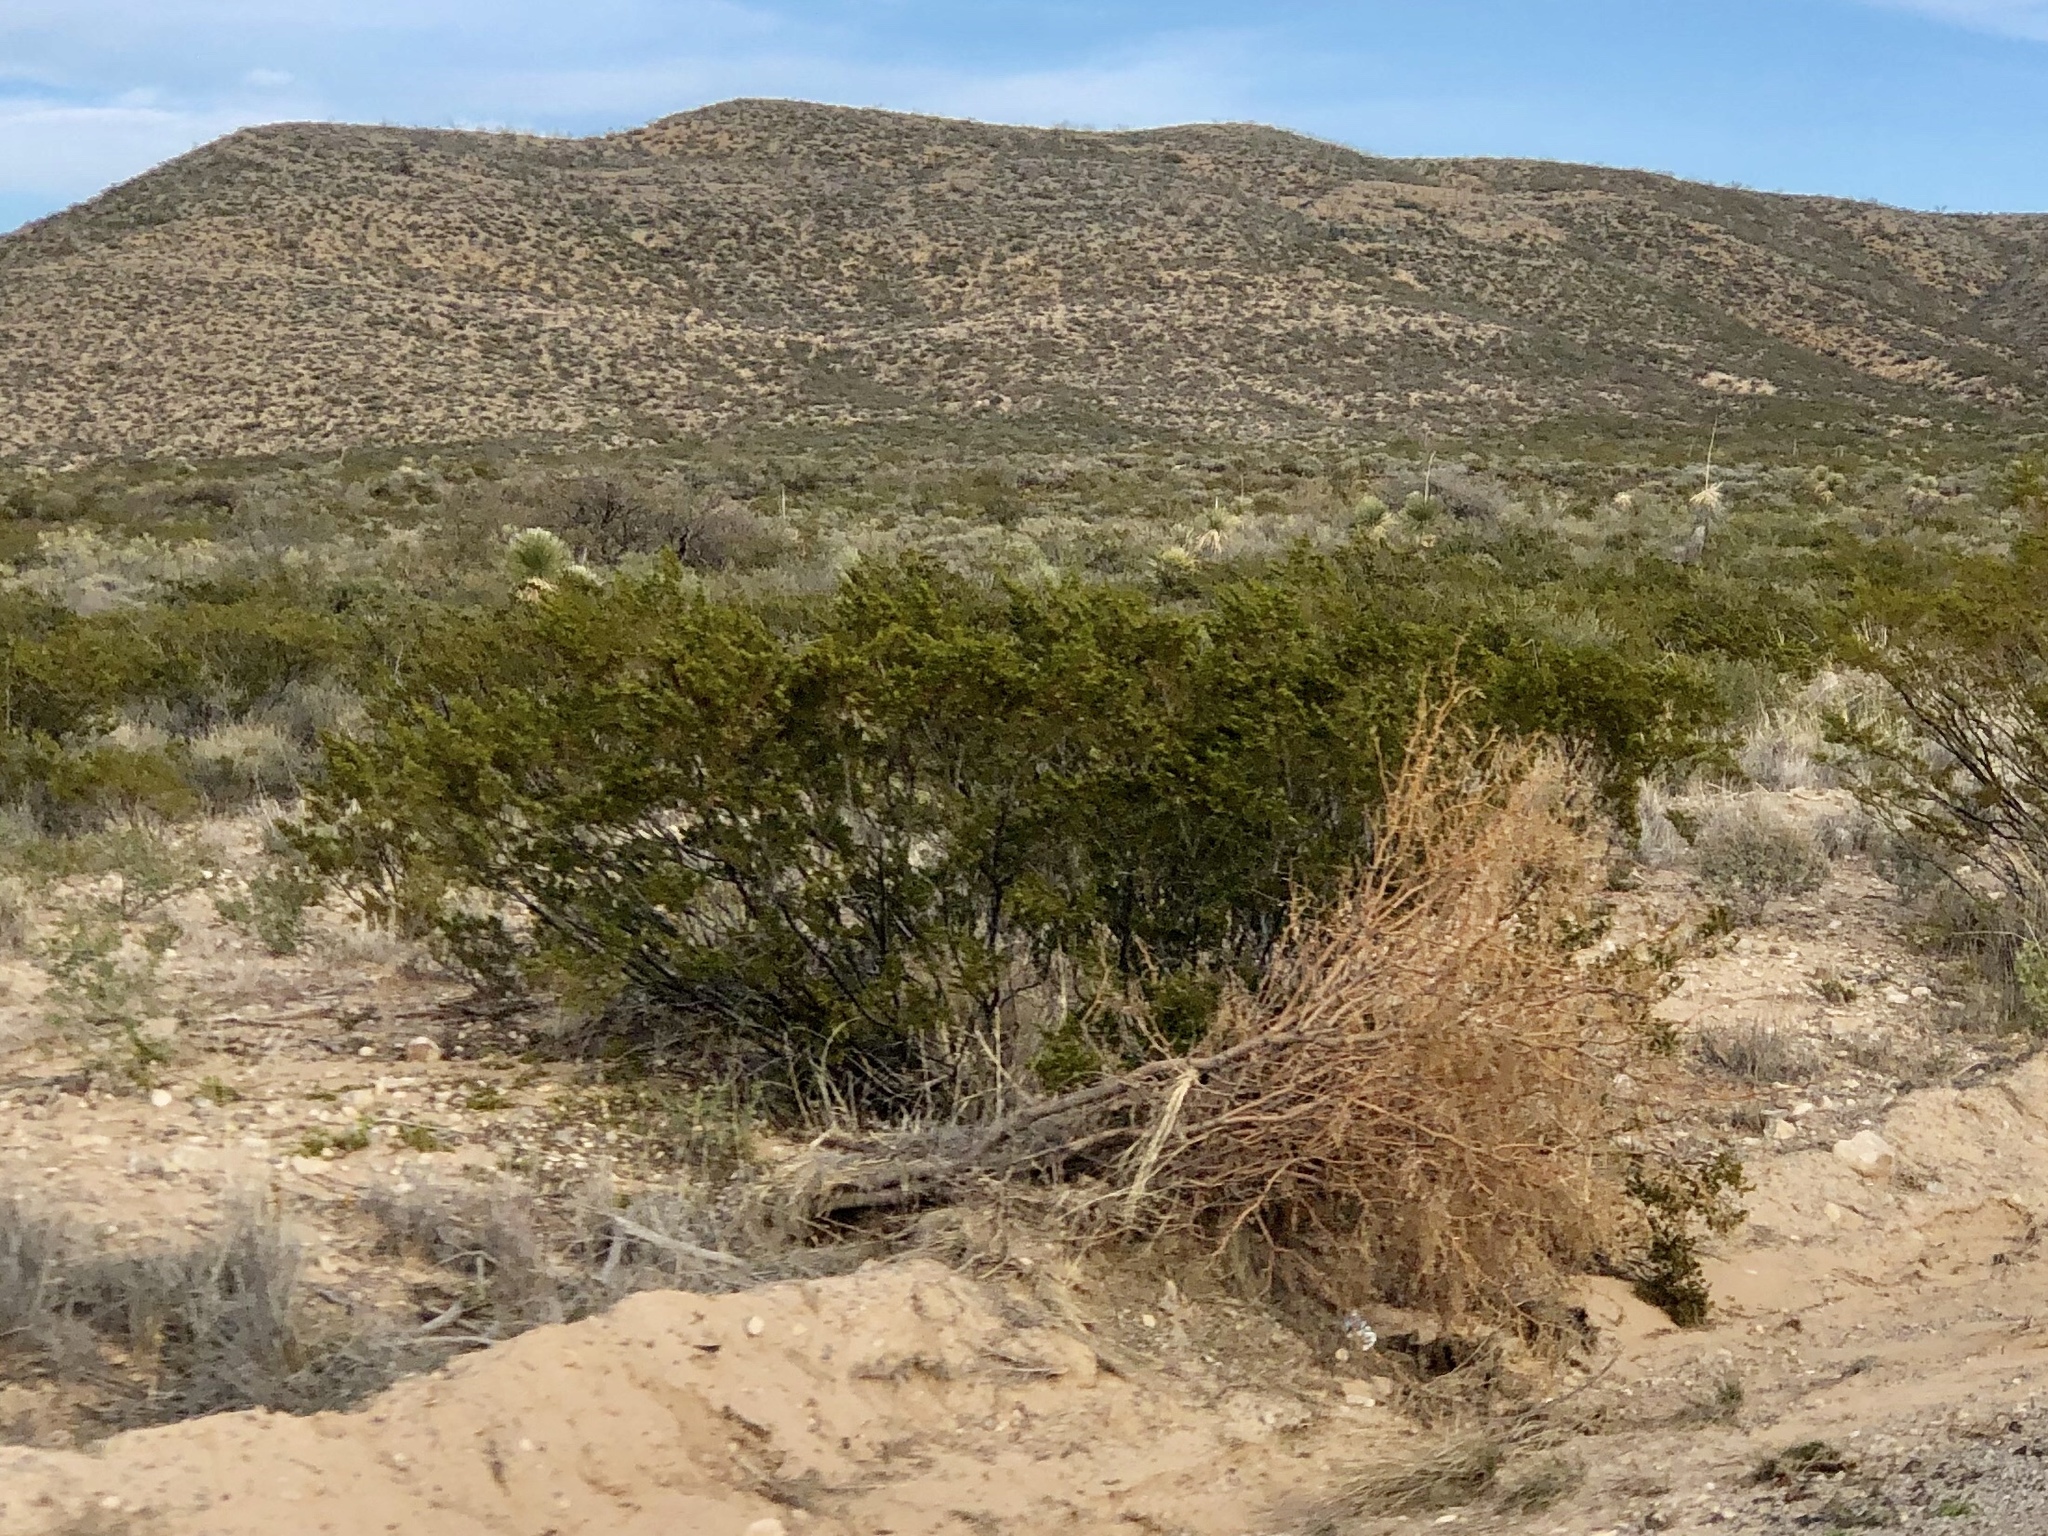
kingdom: Plantae
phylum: Tracheophyta
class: Magnoliopsida
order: Zygophyllales
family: Zygophyllaceae
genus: Larrea
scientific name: Larrea tridentata
